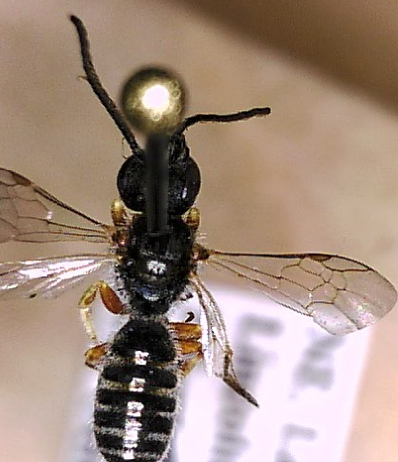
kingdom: Animalia
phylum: Arthropoda
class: Insecta
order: Hymenoptera
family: Halictidae
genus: Halictus
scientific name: Halictus confusus
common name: Southern bronze furrow bee
